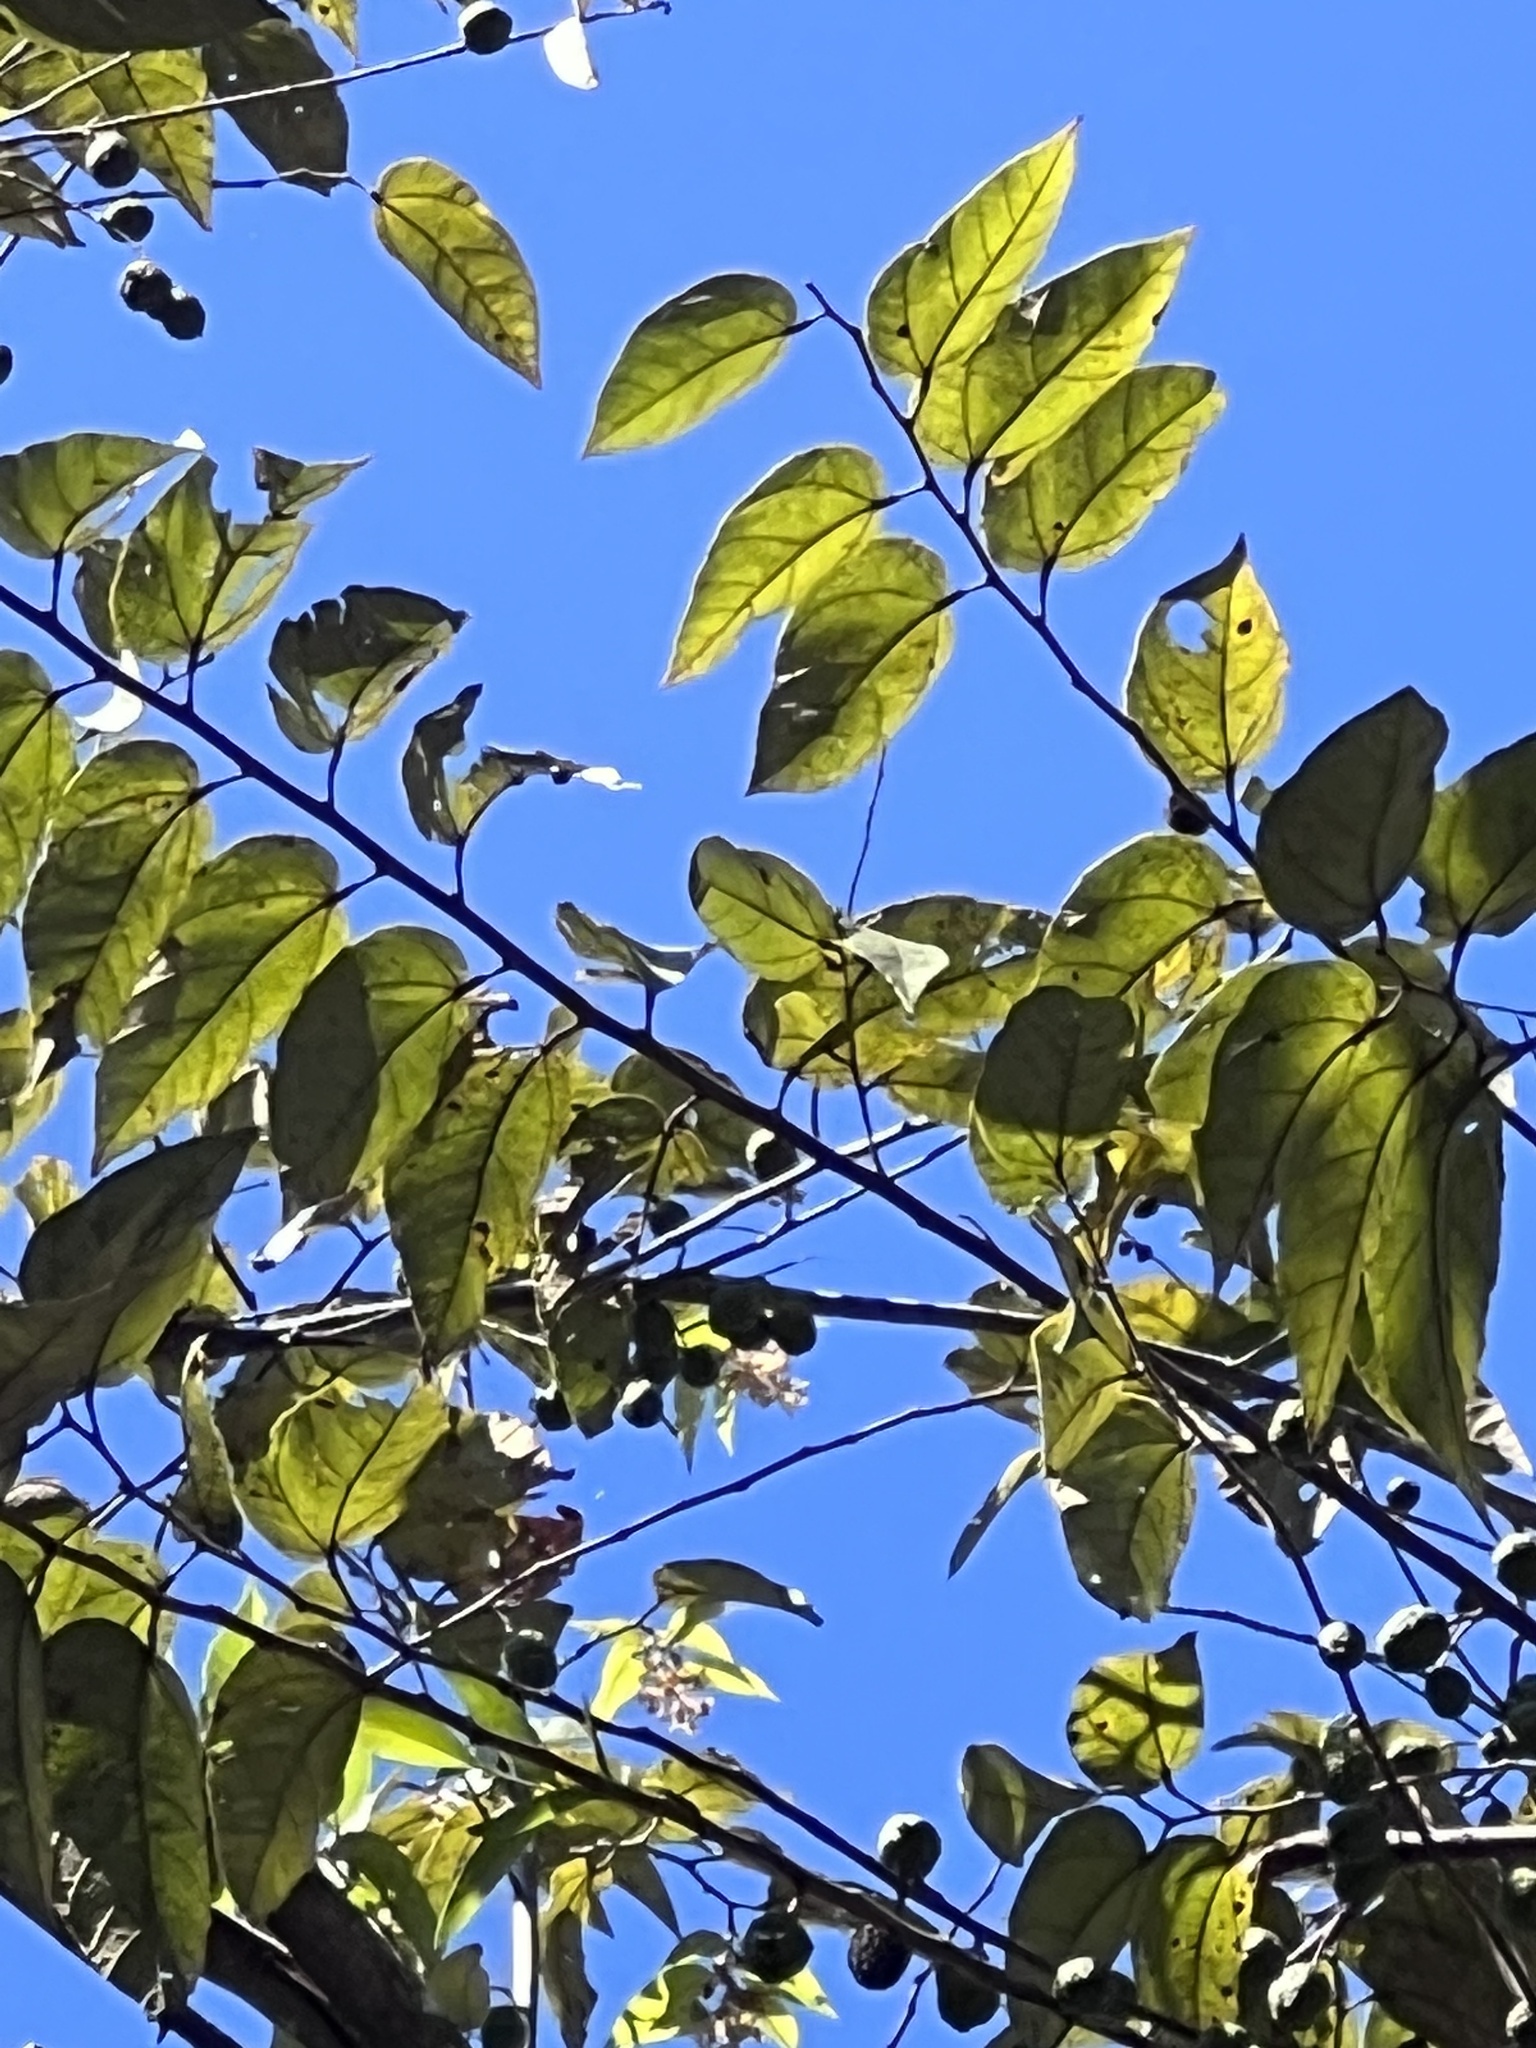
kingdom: Plantae
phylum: Tracheophyta
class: Magnoliopsida
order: Malvales
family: Malvaceae
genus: Guazuma
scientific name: Guazuma ulmifolia
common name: Bastard-cedar
